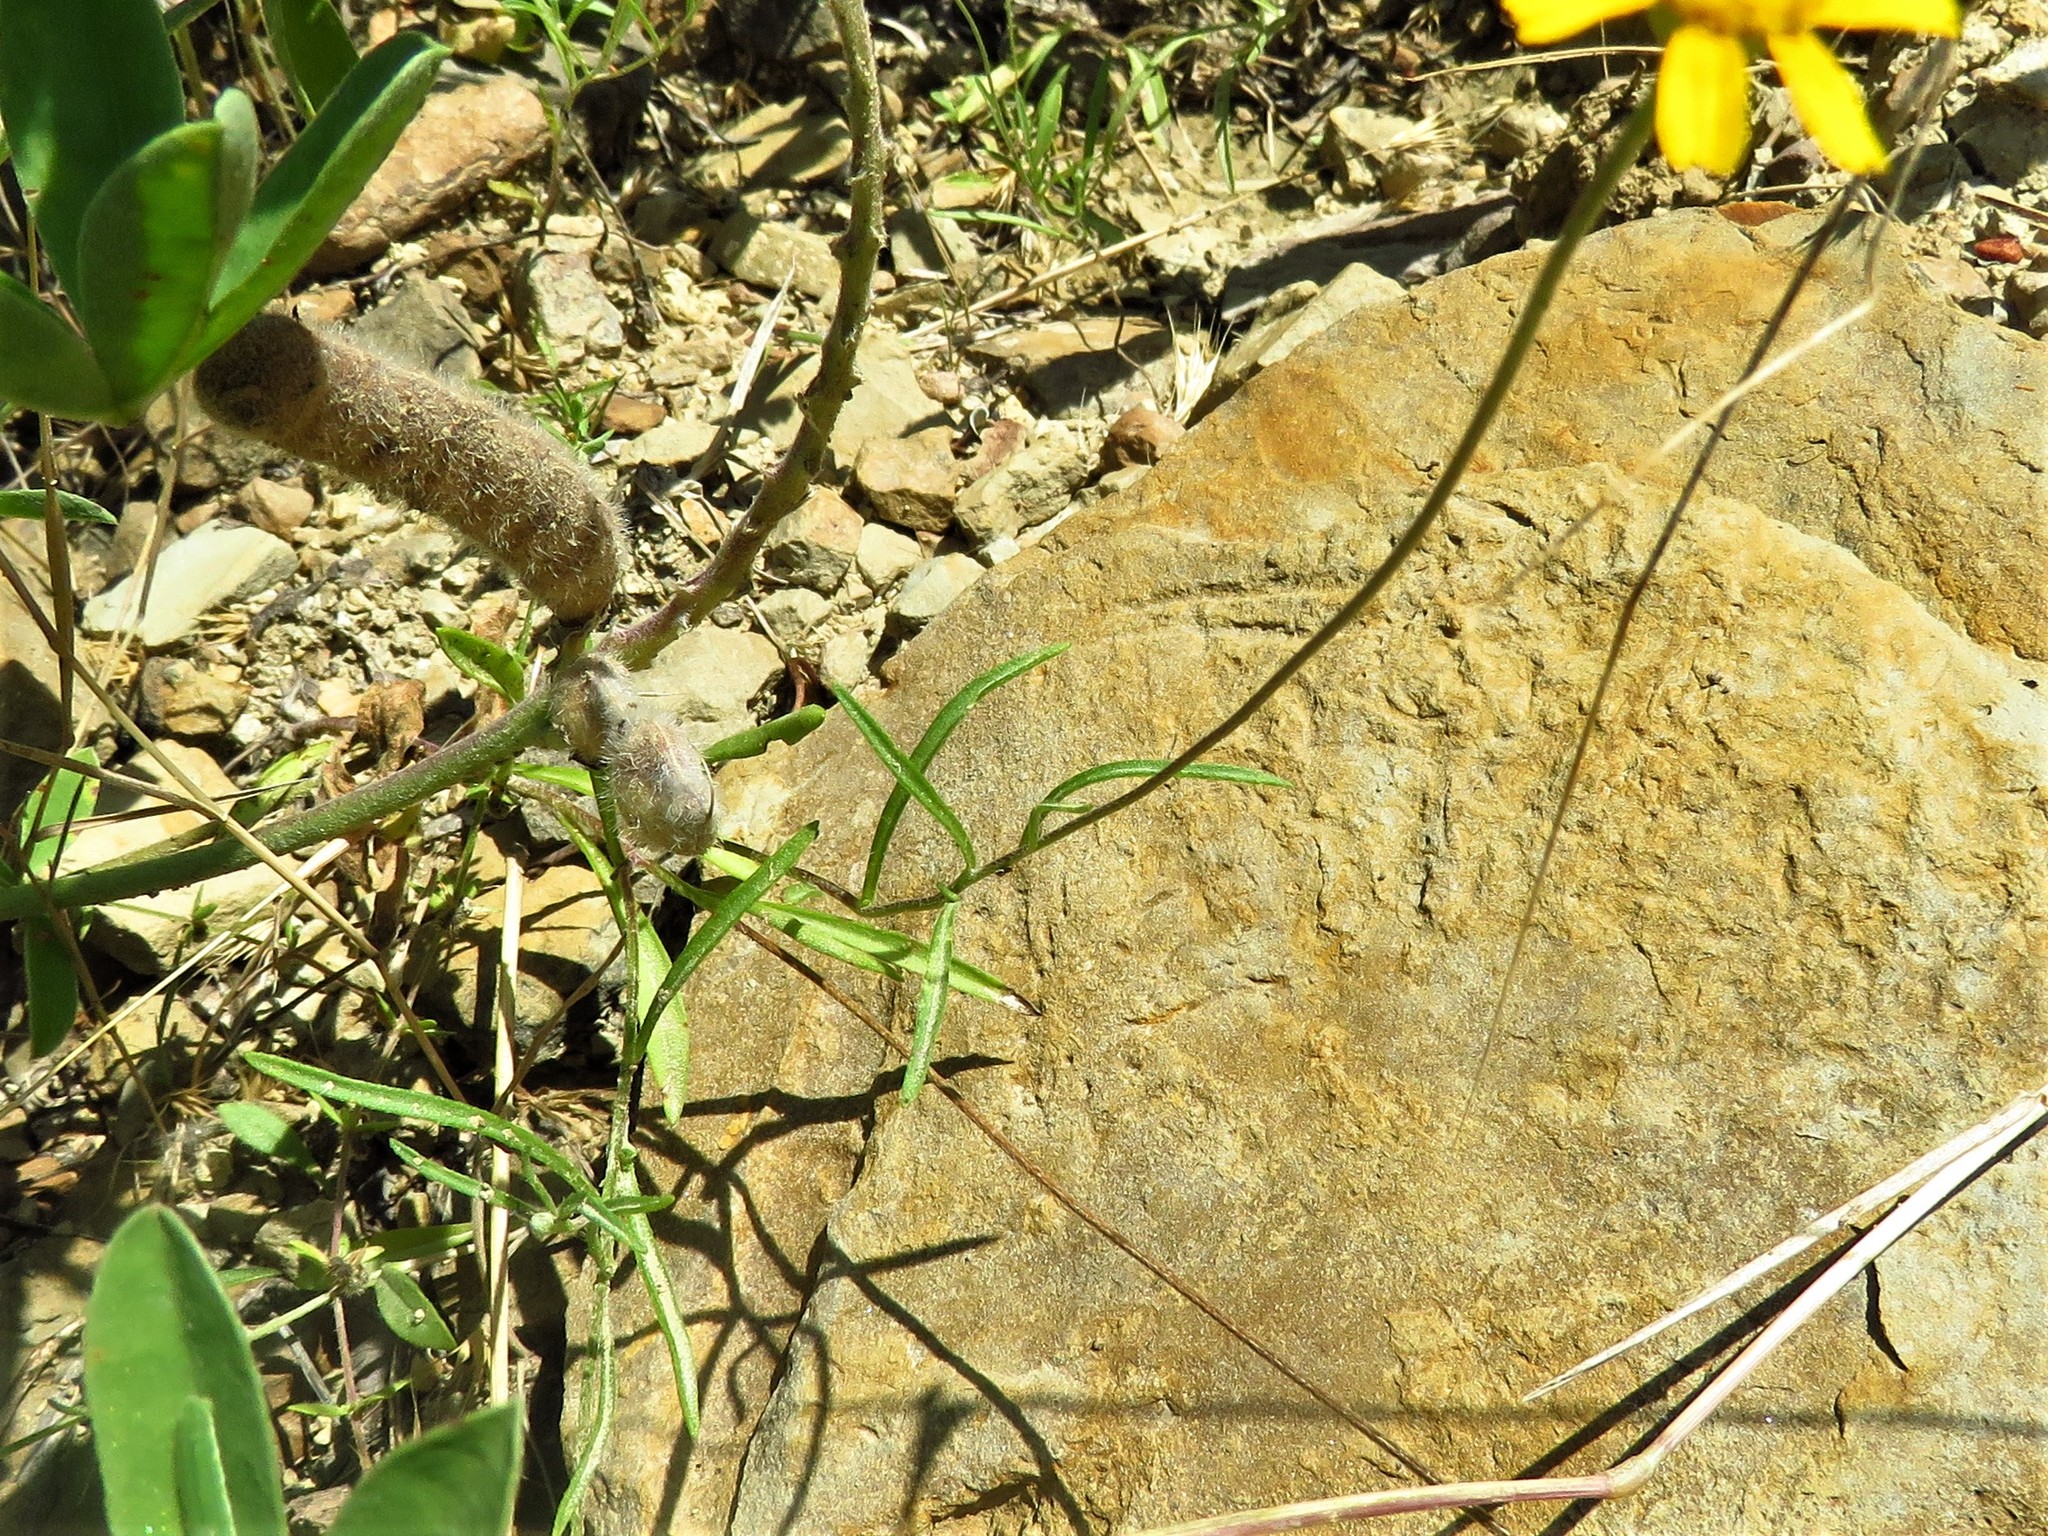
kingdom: Plantae
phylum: Tracheophyta
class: Magnoliopsida
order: Asterales
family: Asteraceae
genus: Tetraneuris
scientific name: Tetraneuris linearifolia
